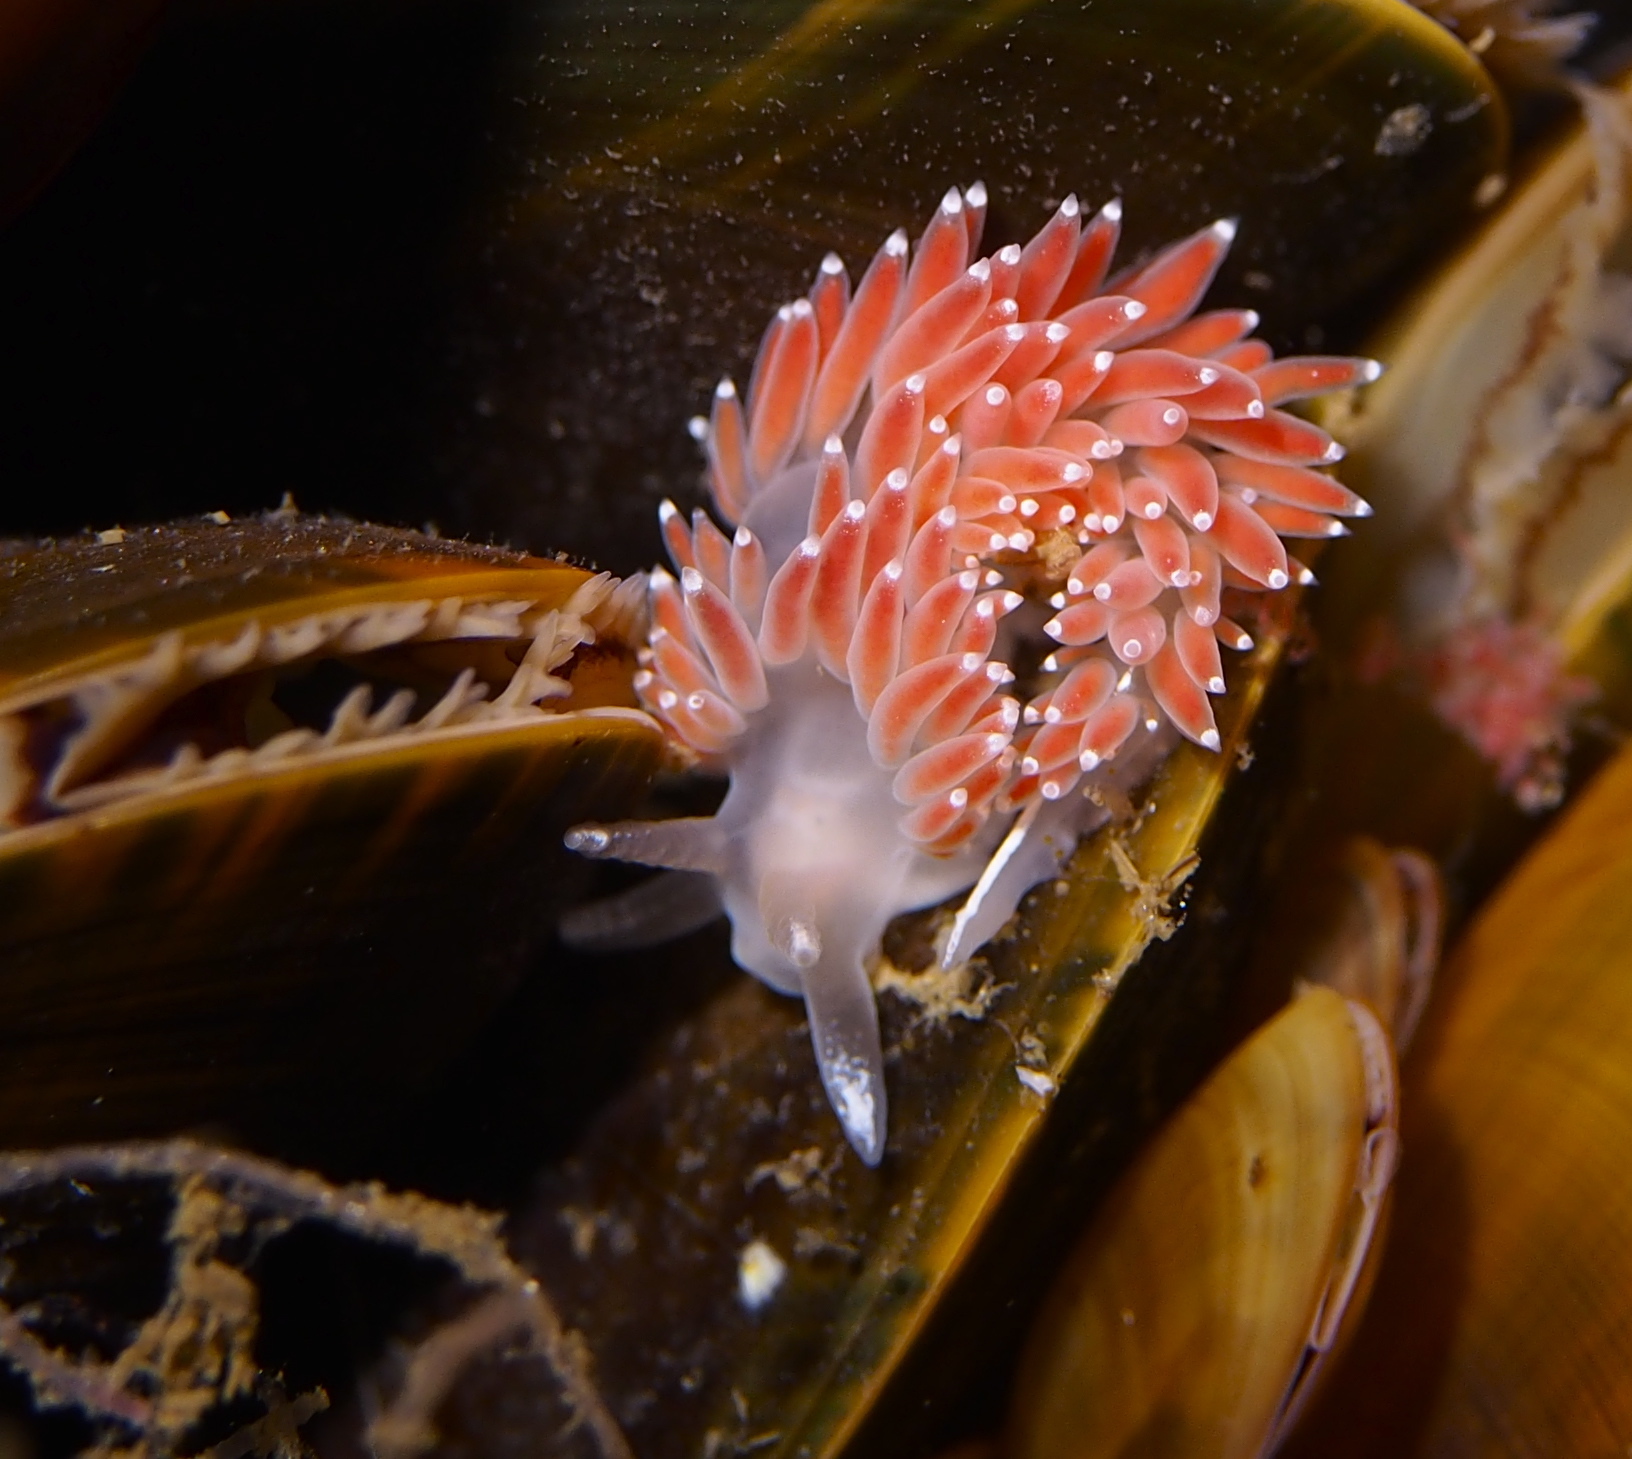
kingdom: Animalia
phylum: Mollusca
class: Gastropoda
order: Nudibranchia
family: Coryphellidae
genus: Coryphella
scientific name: Coryphella verrucosa
